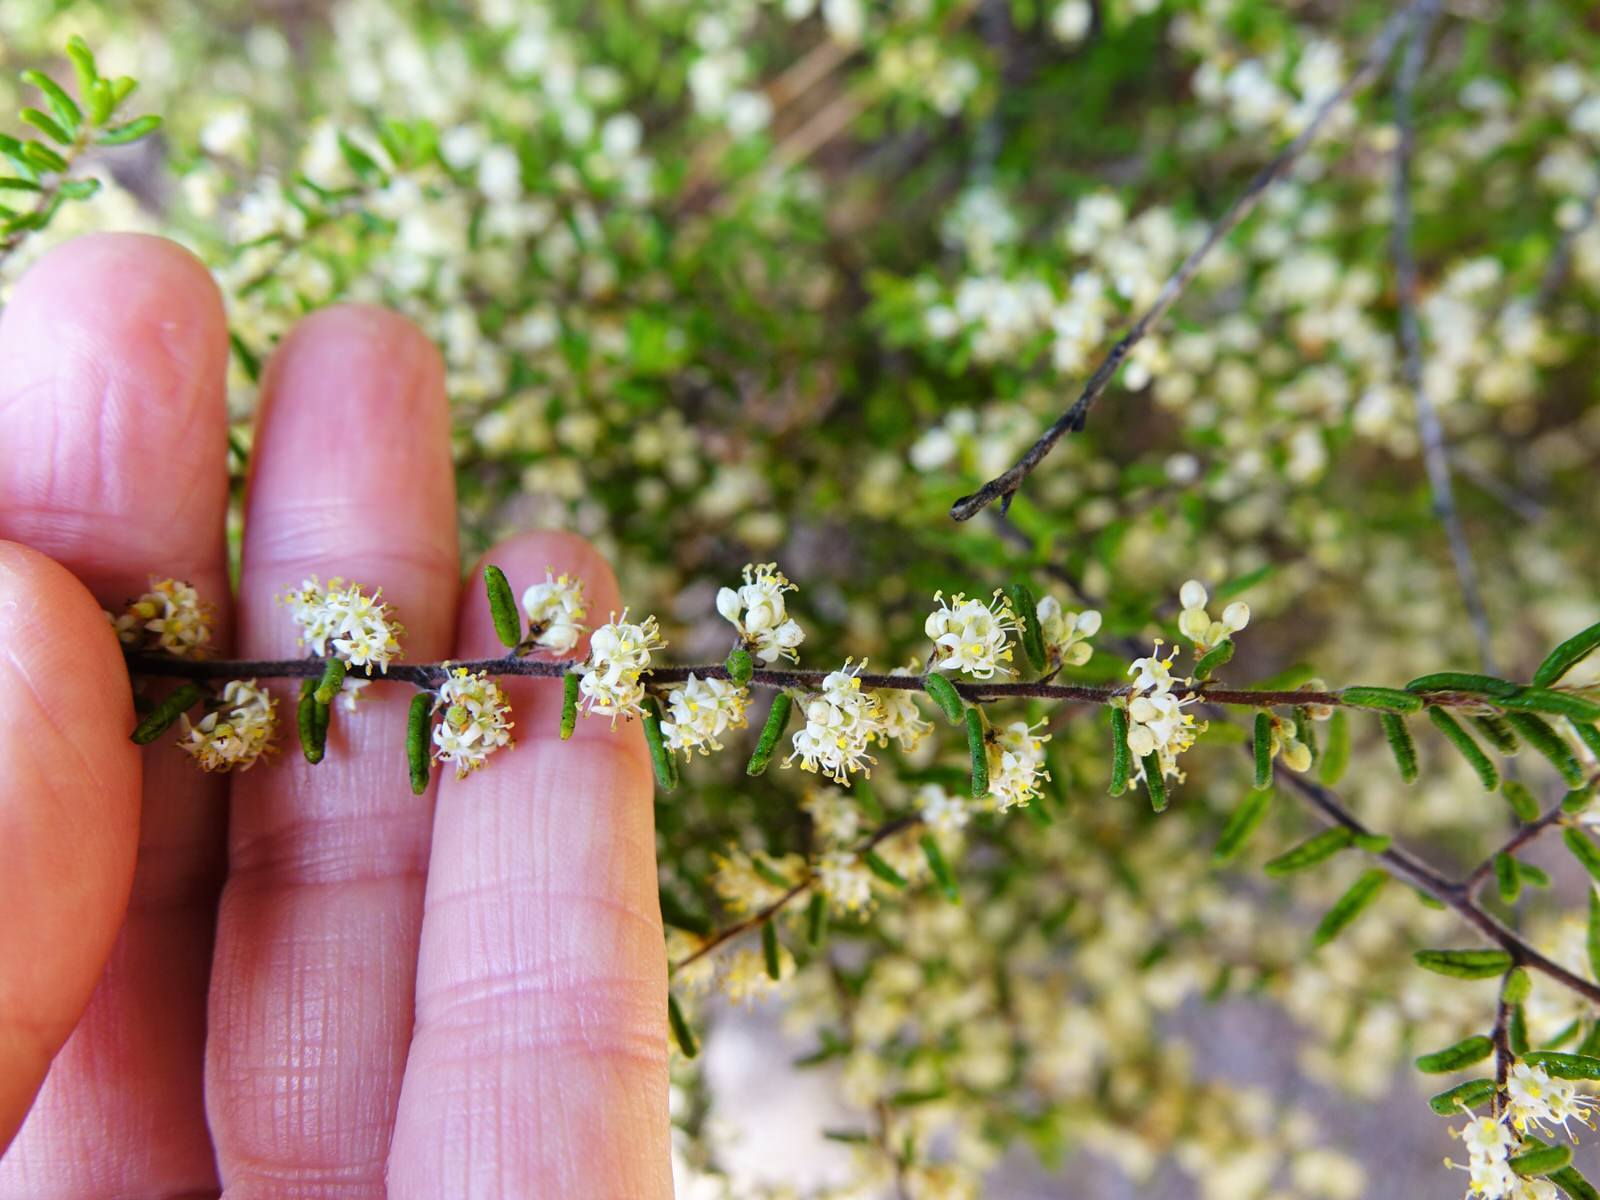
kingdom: Plantae
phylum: Tracheophyta
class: Magnoliopsida
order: Rosales
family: Rhamnaceae
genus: Pomaderris
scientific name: Pomaderris amoena
